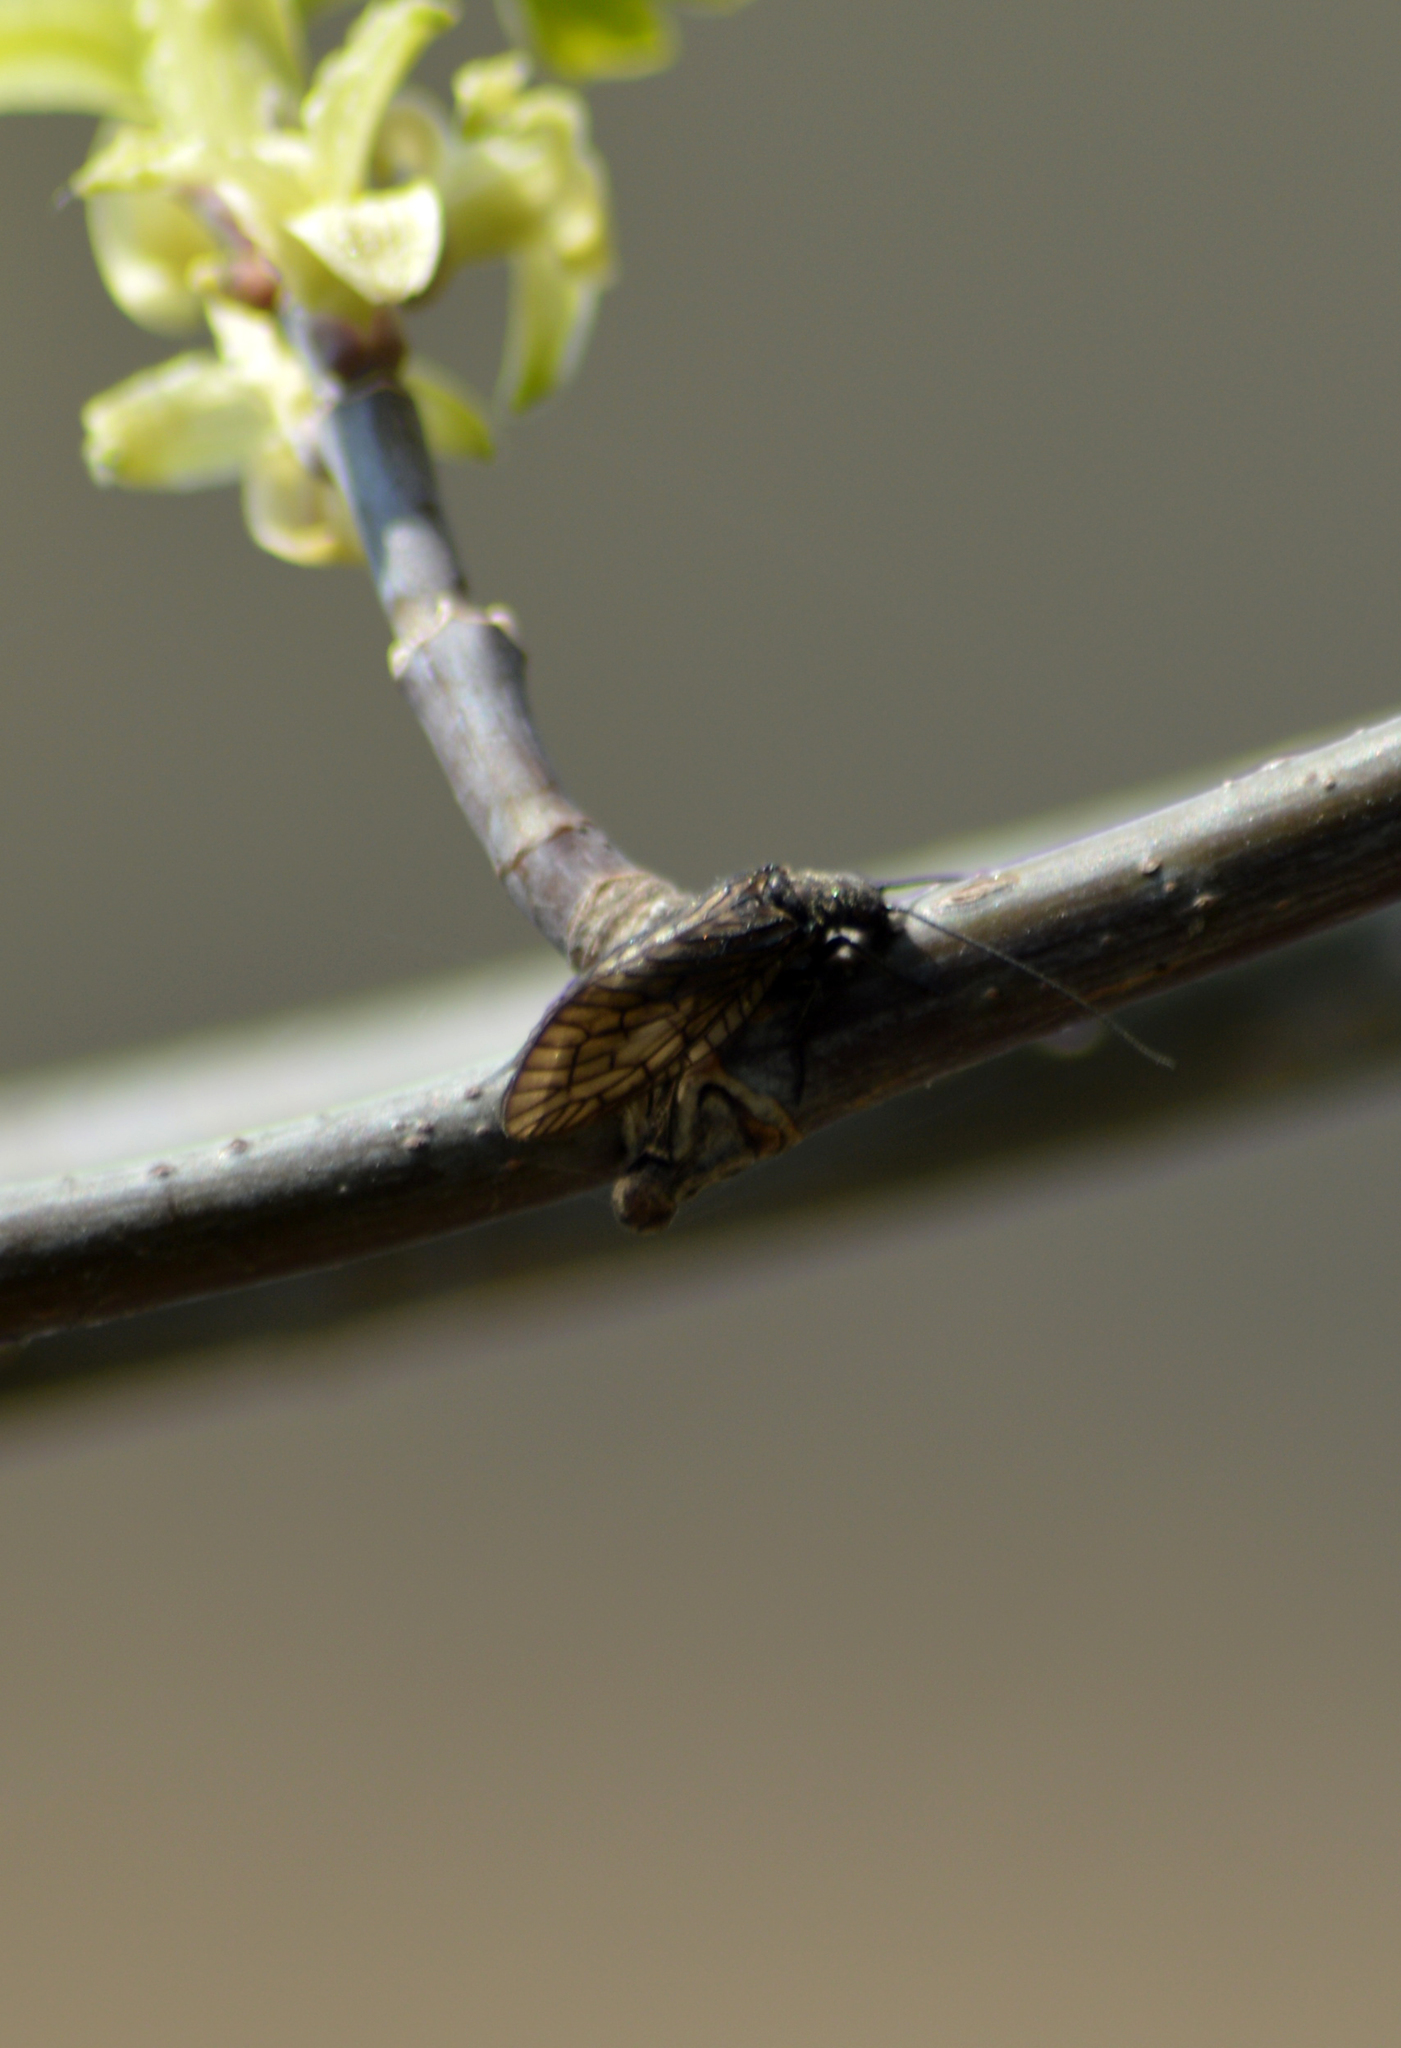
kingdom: Animalia
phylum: Arthropoda
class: Insecta
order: Megaloptera
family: Sialidae
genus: Sialis
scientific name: Sialis
